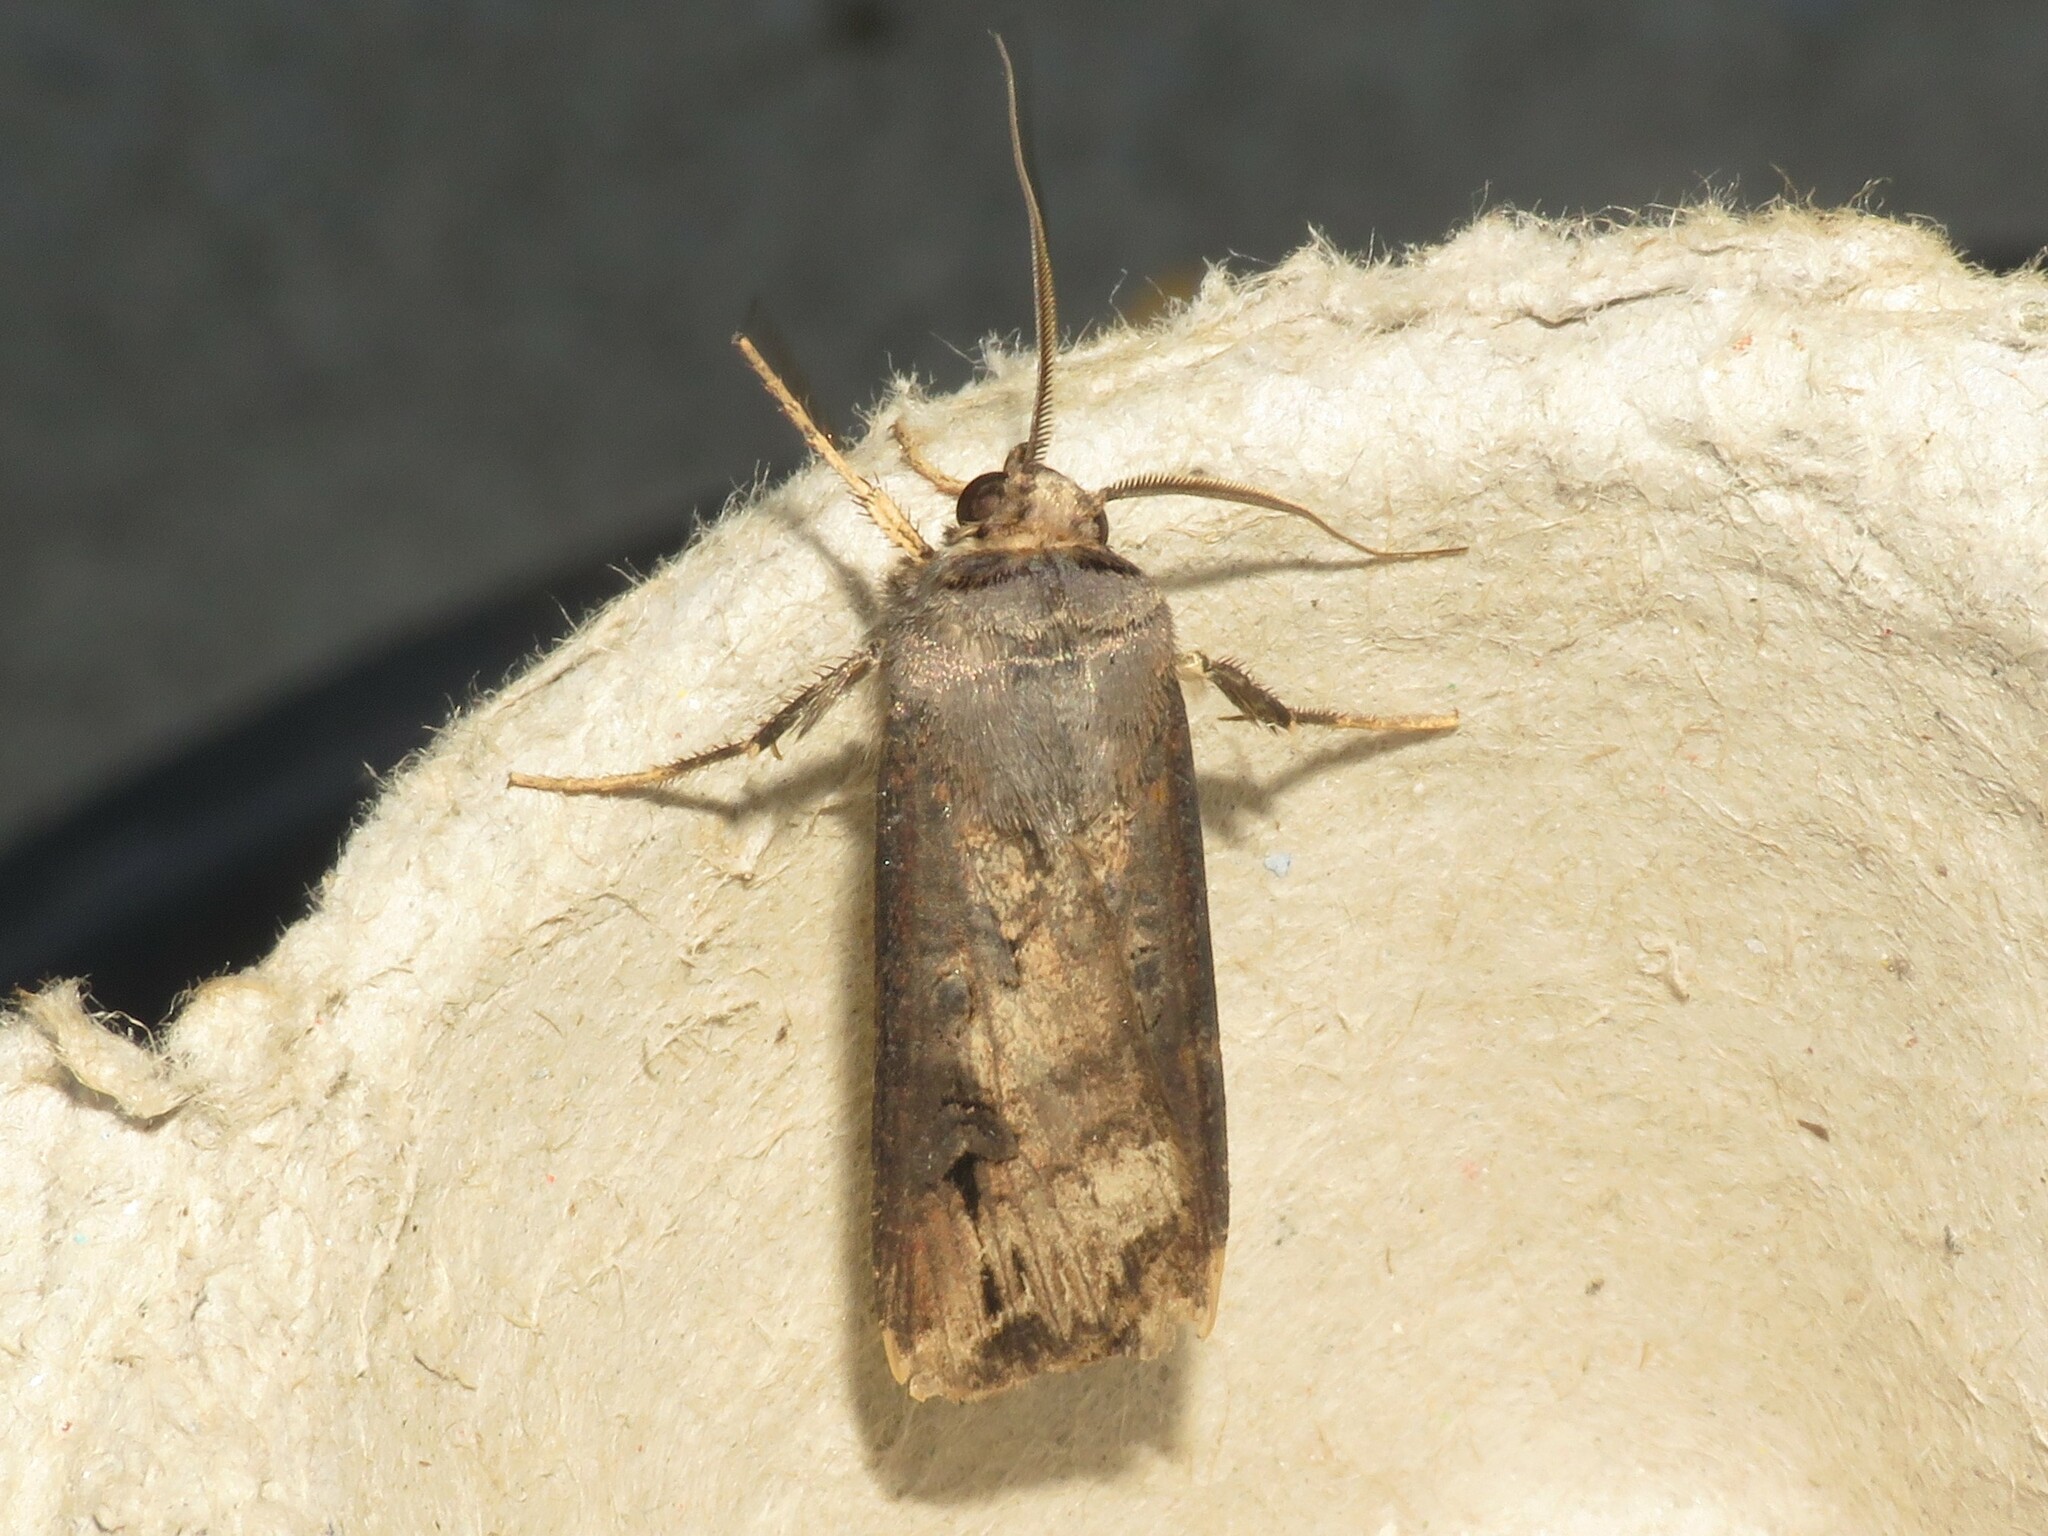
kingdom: Animalia
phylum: Arthropoda
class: Insecta
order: Lepidoptera
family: Noctuidae
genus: Agrotis
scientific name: Agrotis ipsilon
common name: Dark sword-grass
